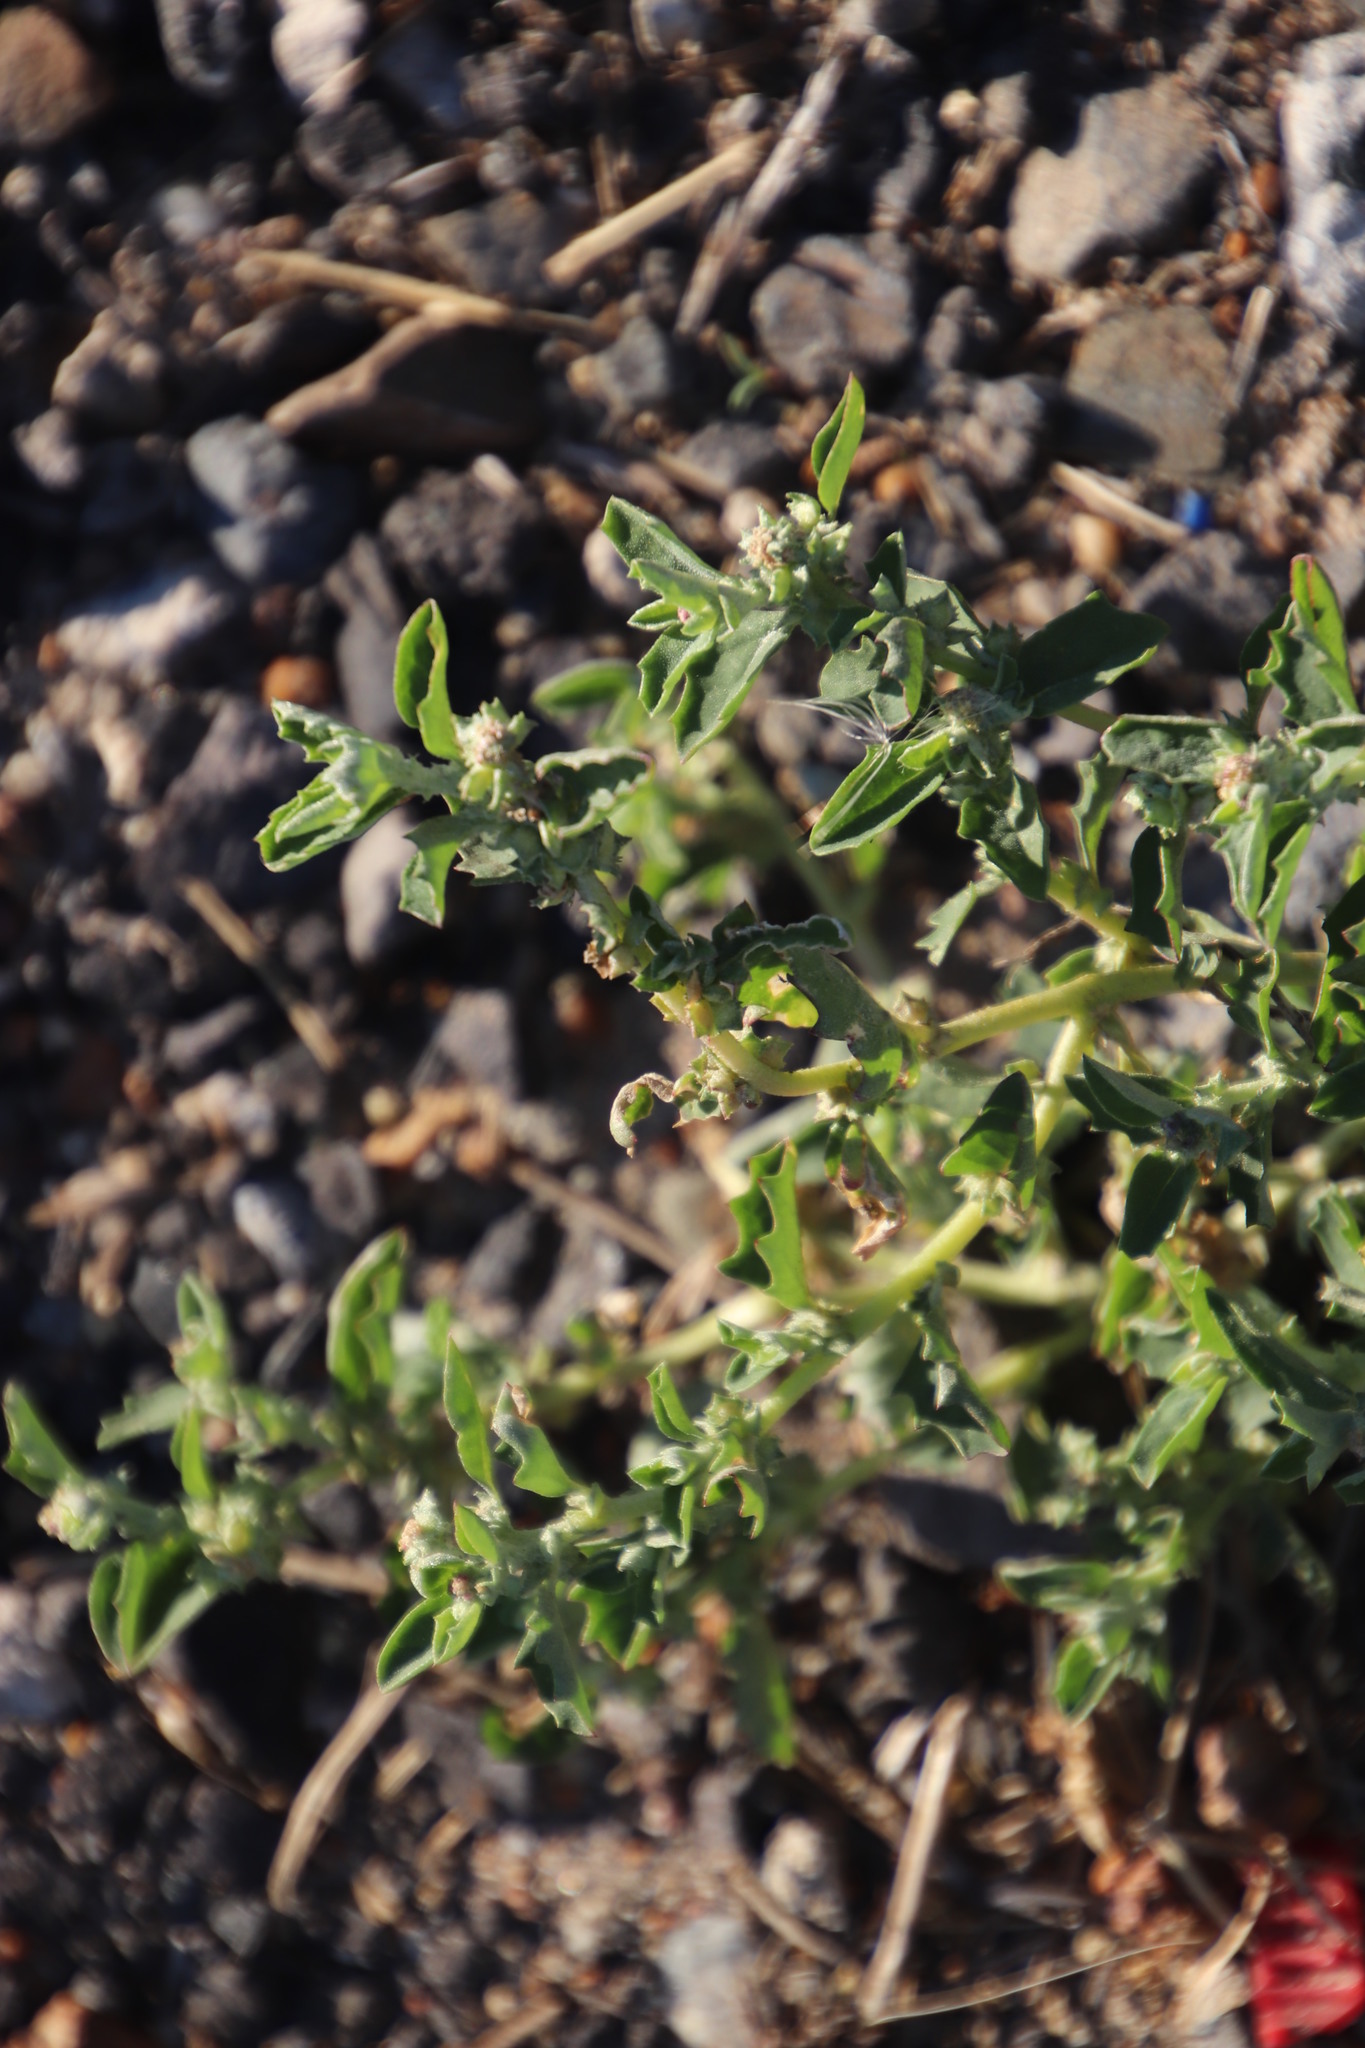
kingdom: Plantae
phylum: Tracheophyta
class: Magnoliopsida
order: Caryophyllales
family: Amaranthaceae
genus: Salsola
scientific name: Salsola kali
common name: Saltwort
